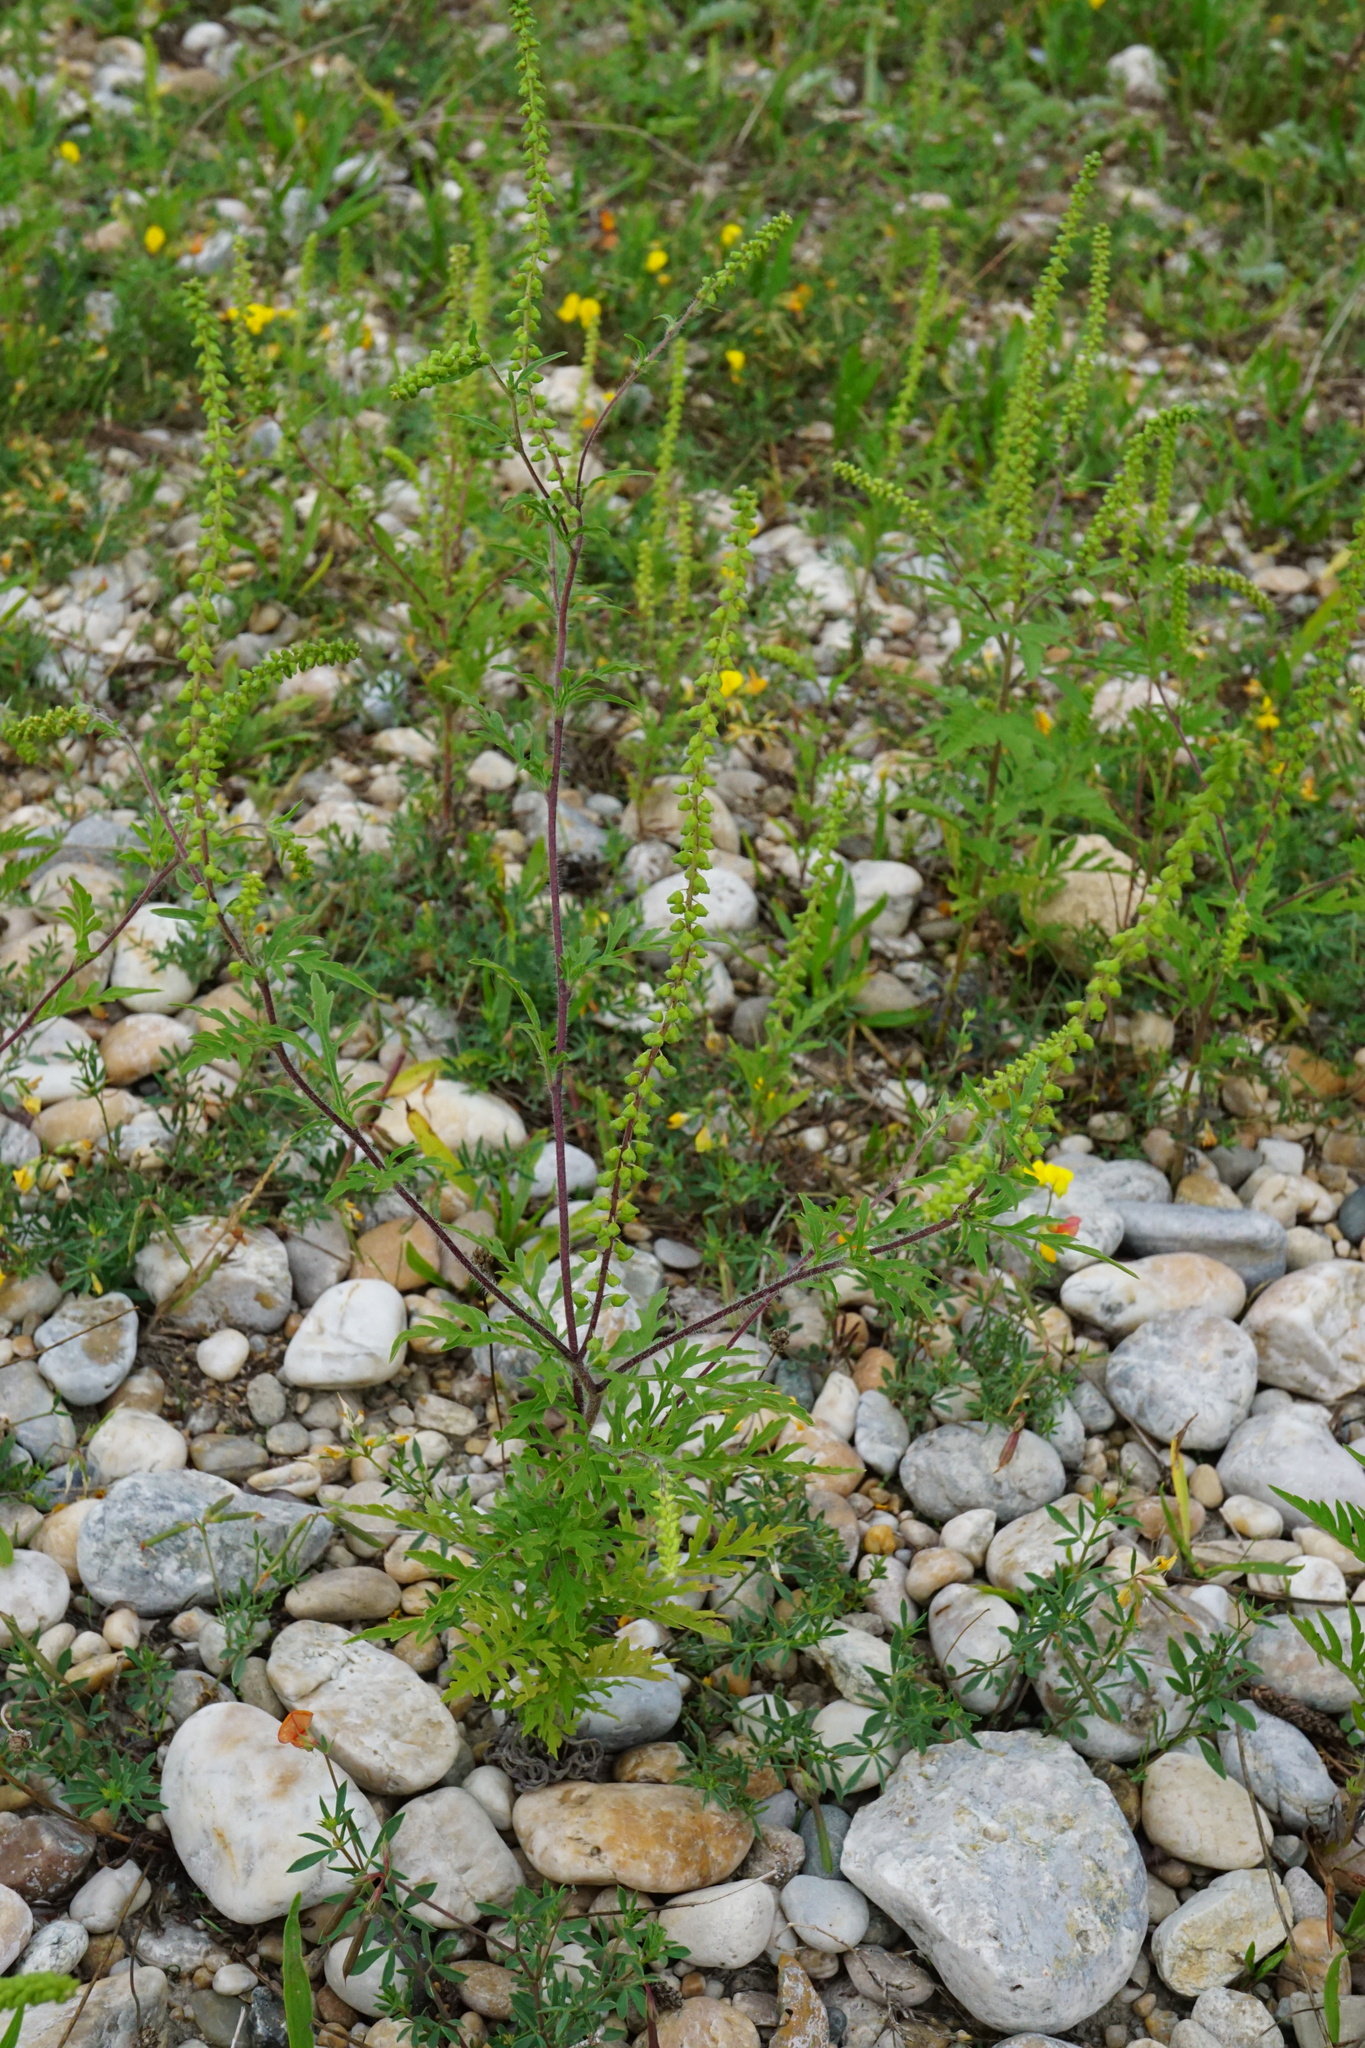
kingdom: Plantae
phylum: Tracheophyta
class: Magnoliopsida
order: Asterales
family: Asteraceae
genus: Ambrosia
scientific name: Ambrosia artemisiifolia
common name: Annual ragweed
